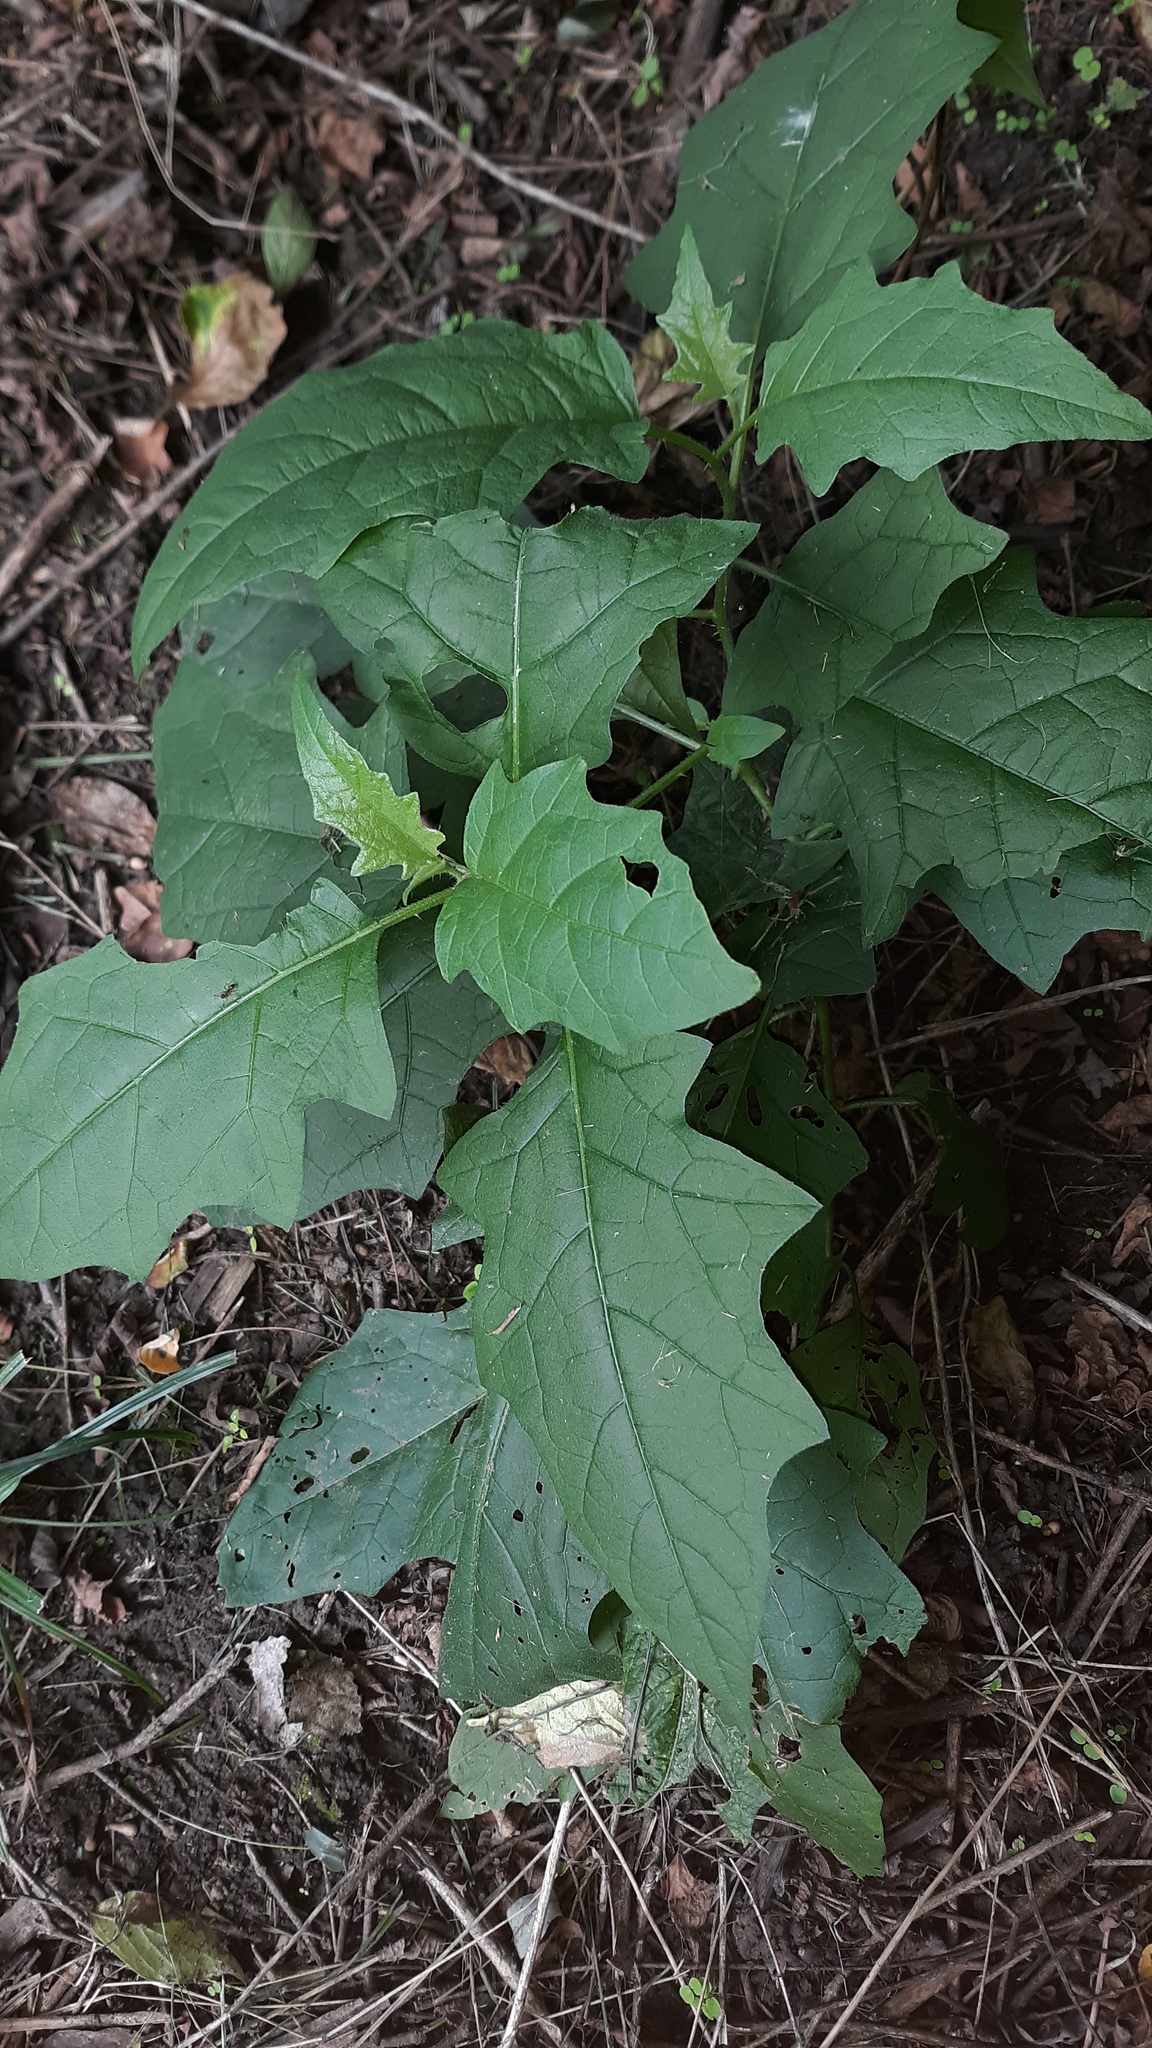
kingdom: Plantae
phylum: Tracheophyta
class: Magnoliopsida
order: Solanales
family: Solanaceae
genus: Solanum
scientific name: Solanum carolinense
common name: Horse-nettle
